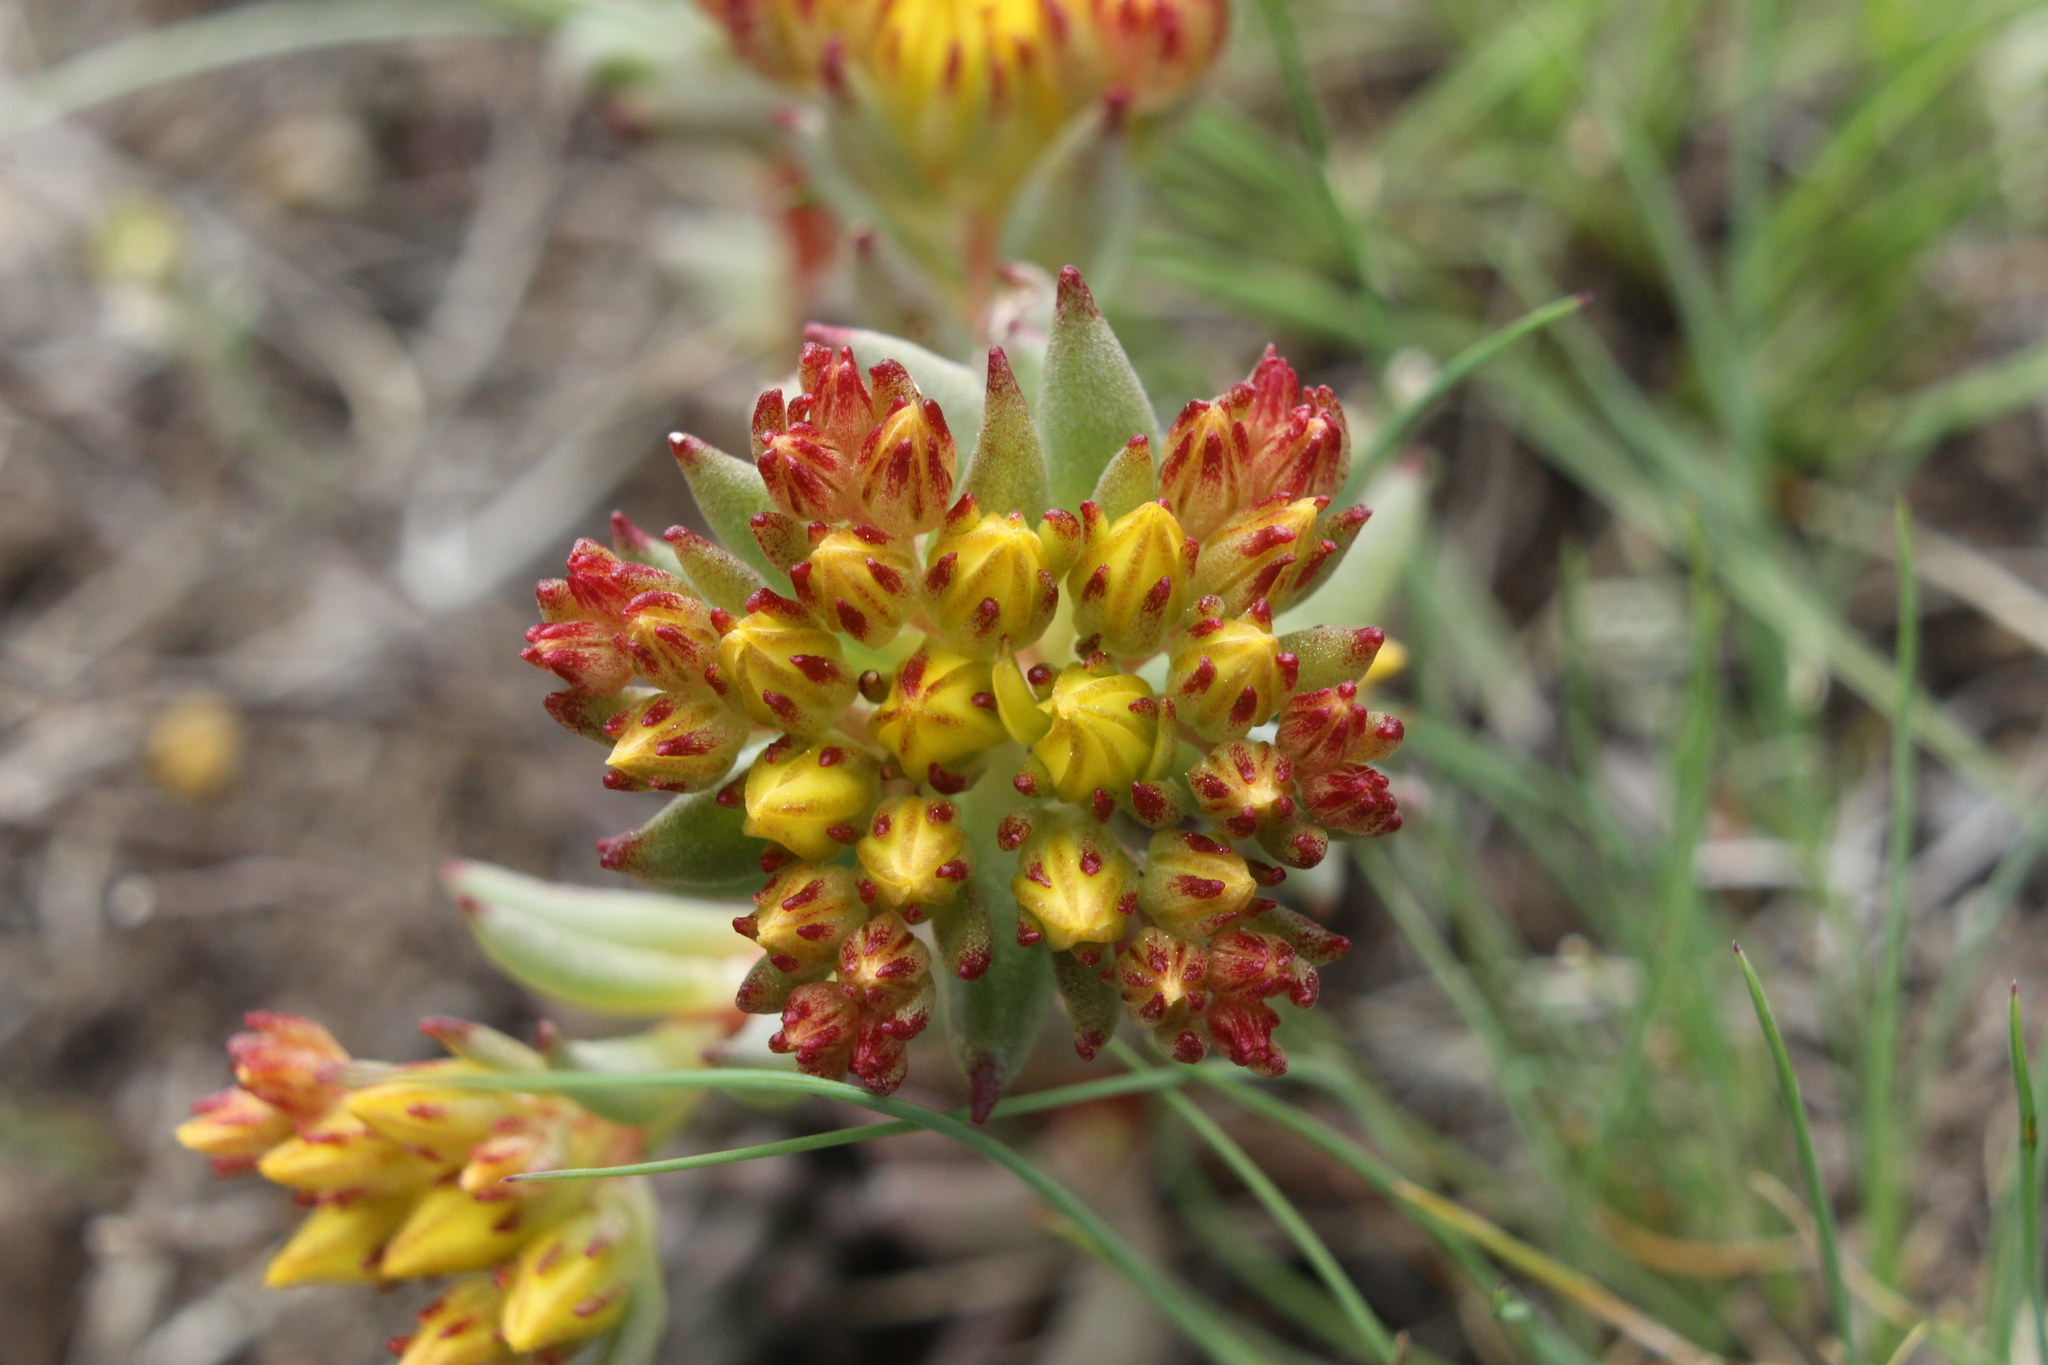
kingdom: Plantae
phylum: Tracheophyta
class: Magnoliopsida
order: Saxifragales
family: Crassulaceae
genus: Sedum
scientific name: Sedum lanceolatum
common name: Common stonecrop
